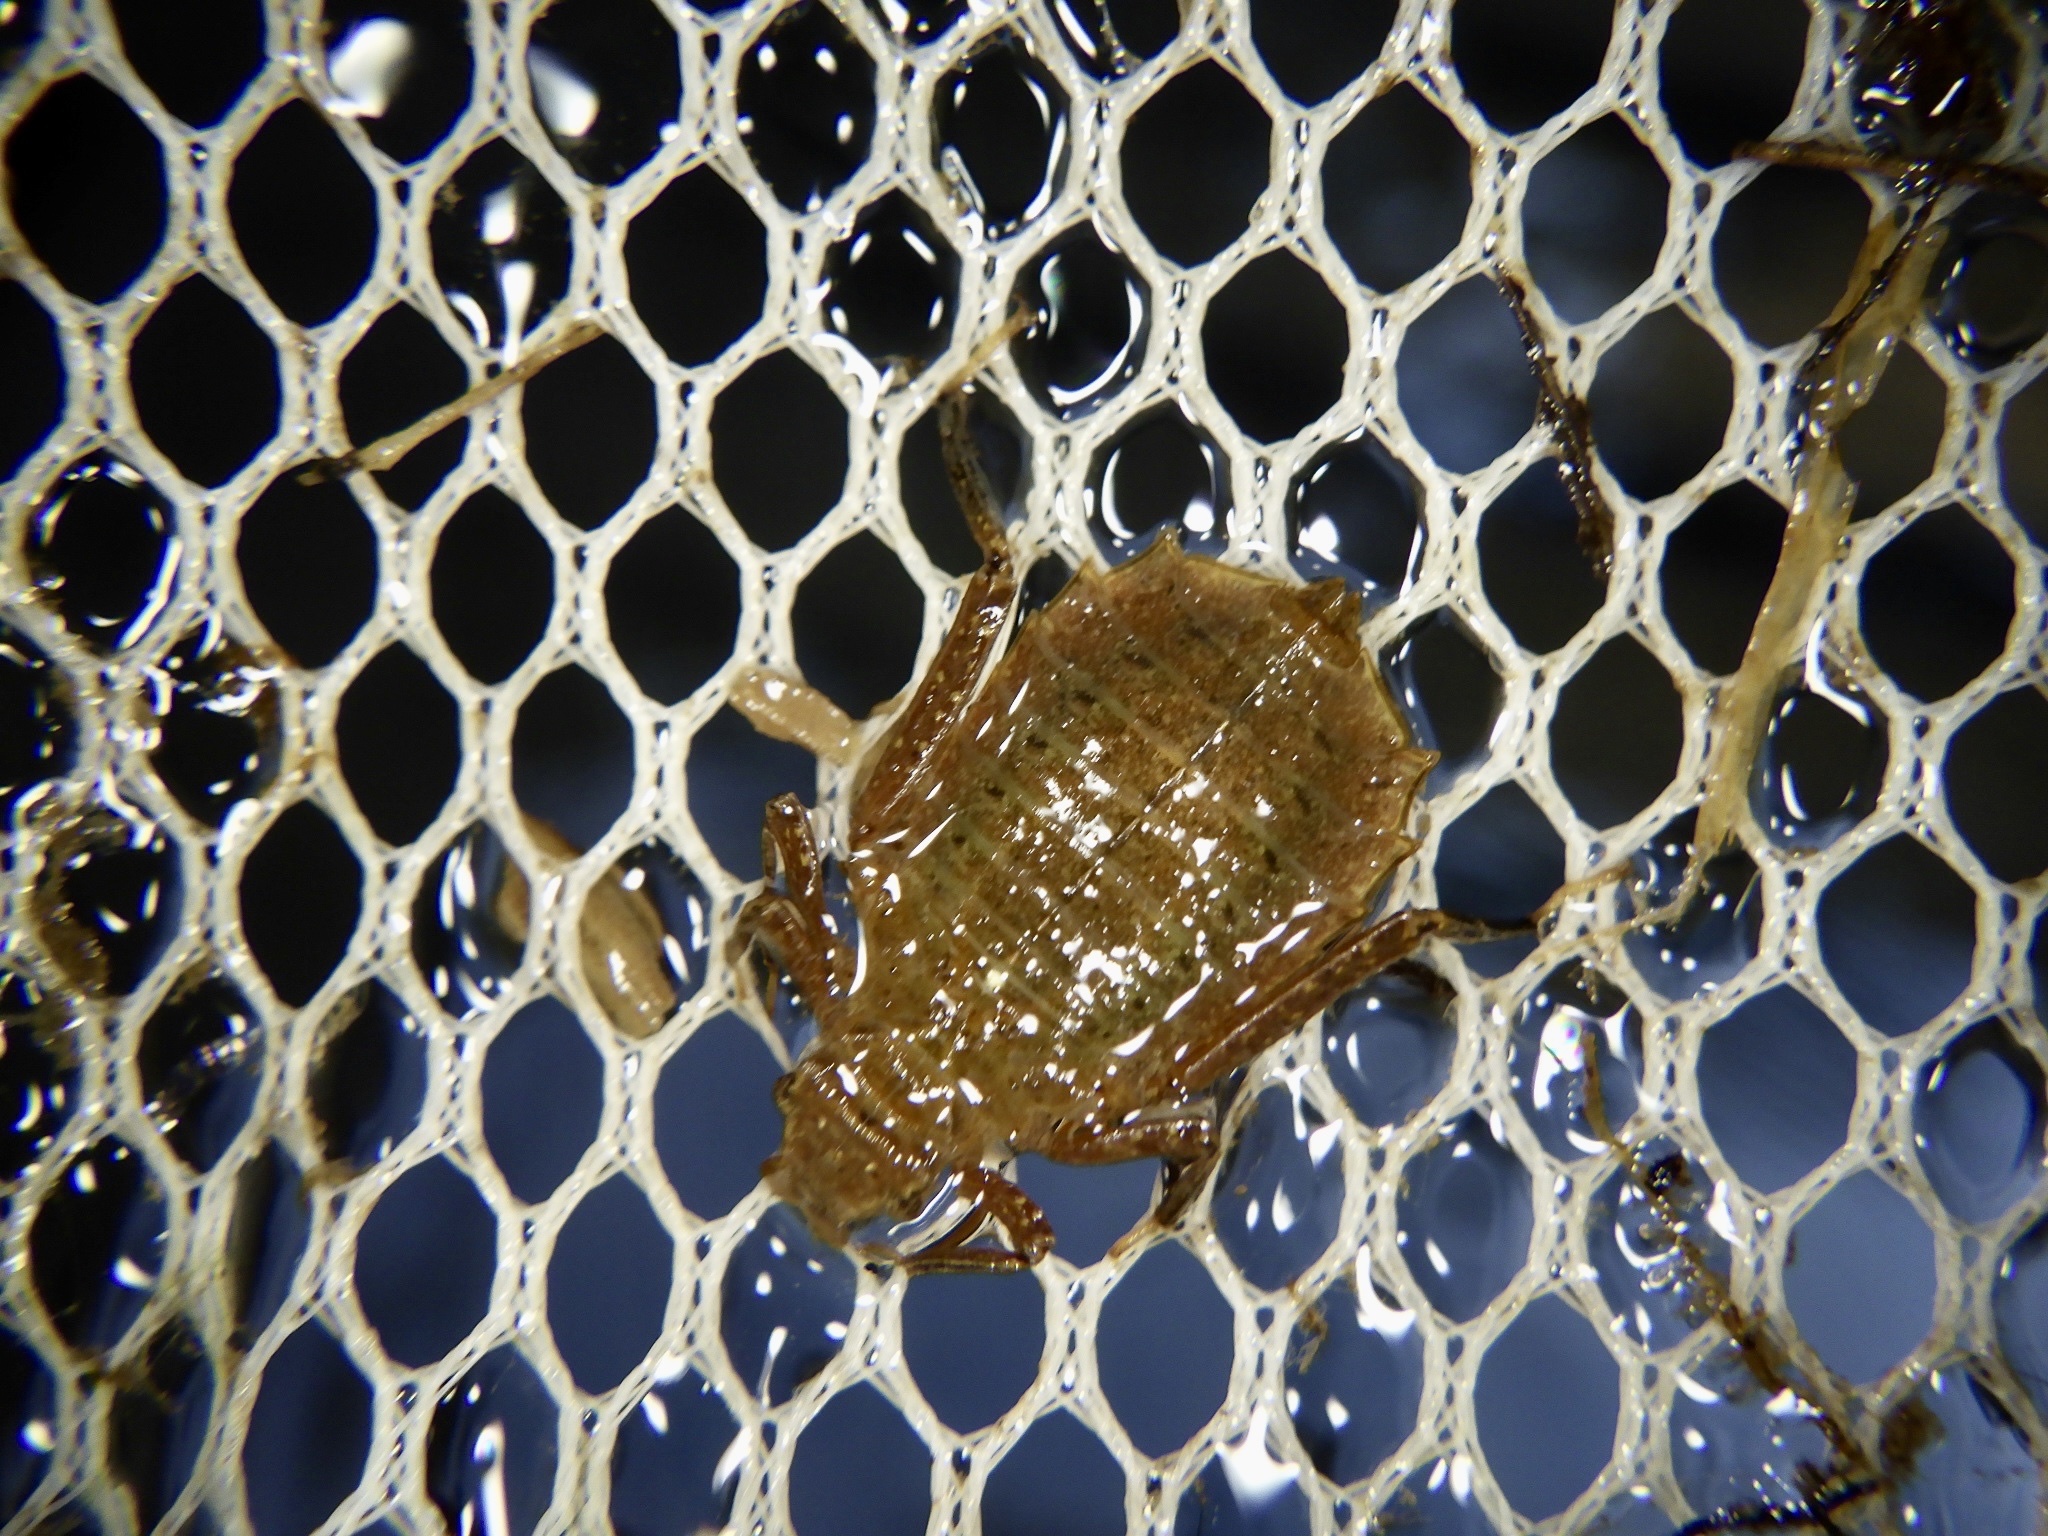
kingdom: Animalia
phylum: Arthropoda
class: Insecta
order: Odonata
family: Gomphidae
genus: Sieboldius
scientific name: Sieboldius albardae
